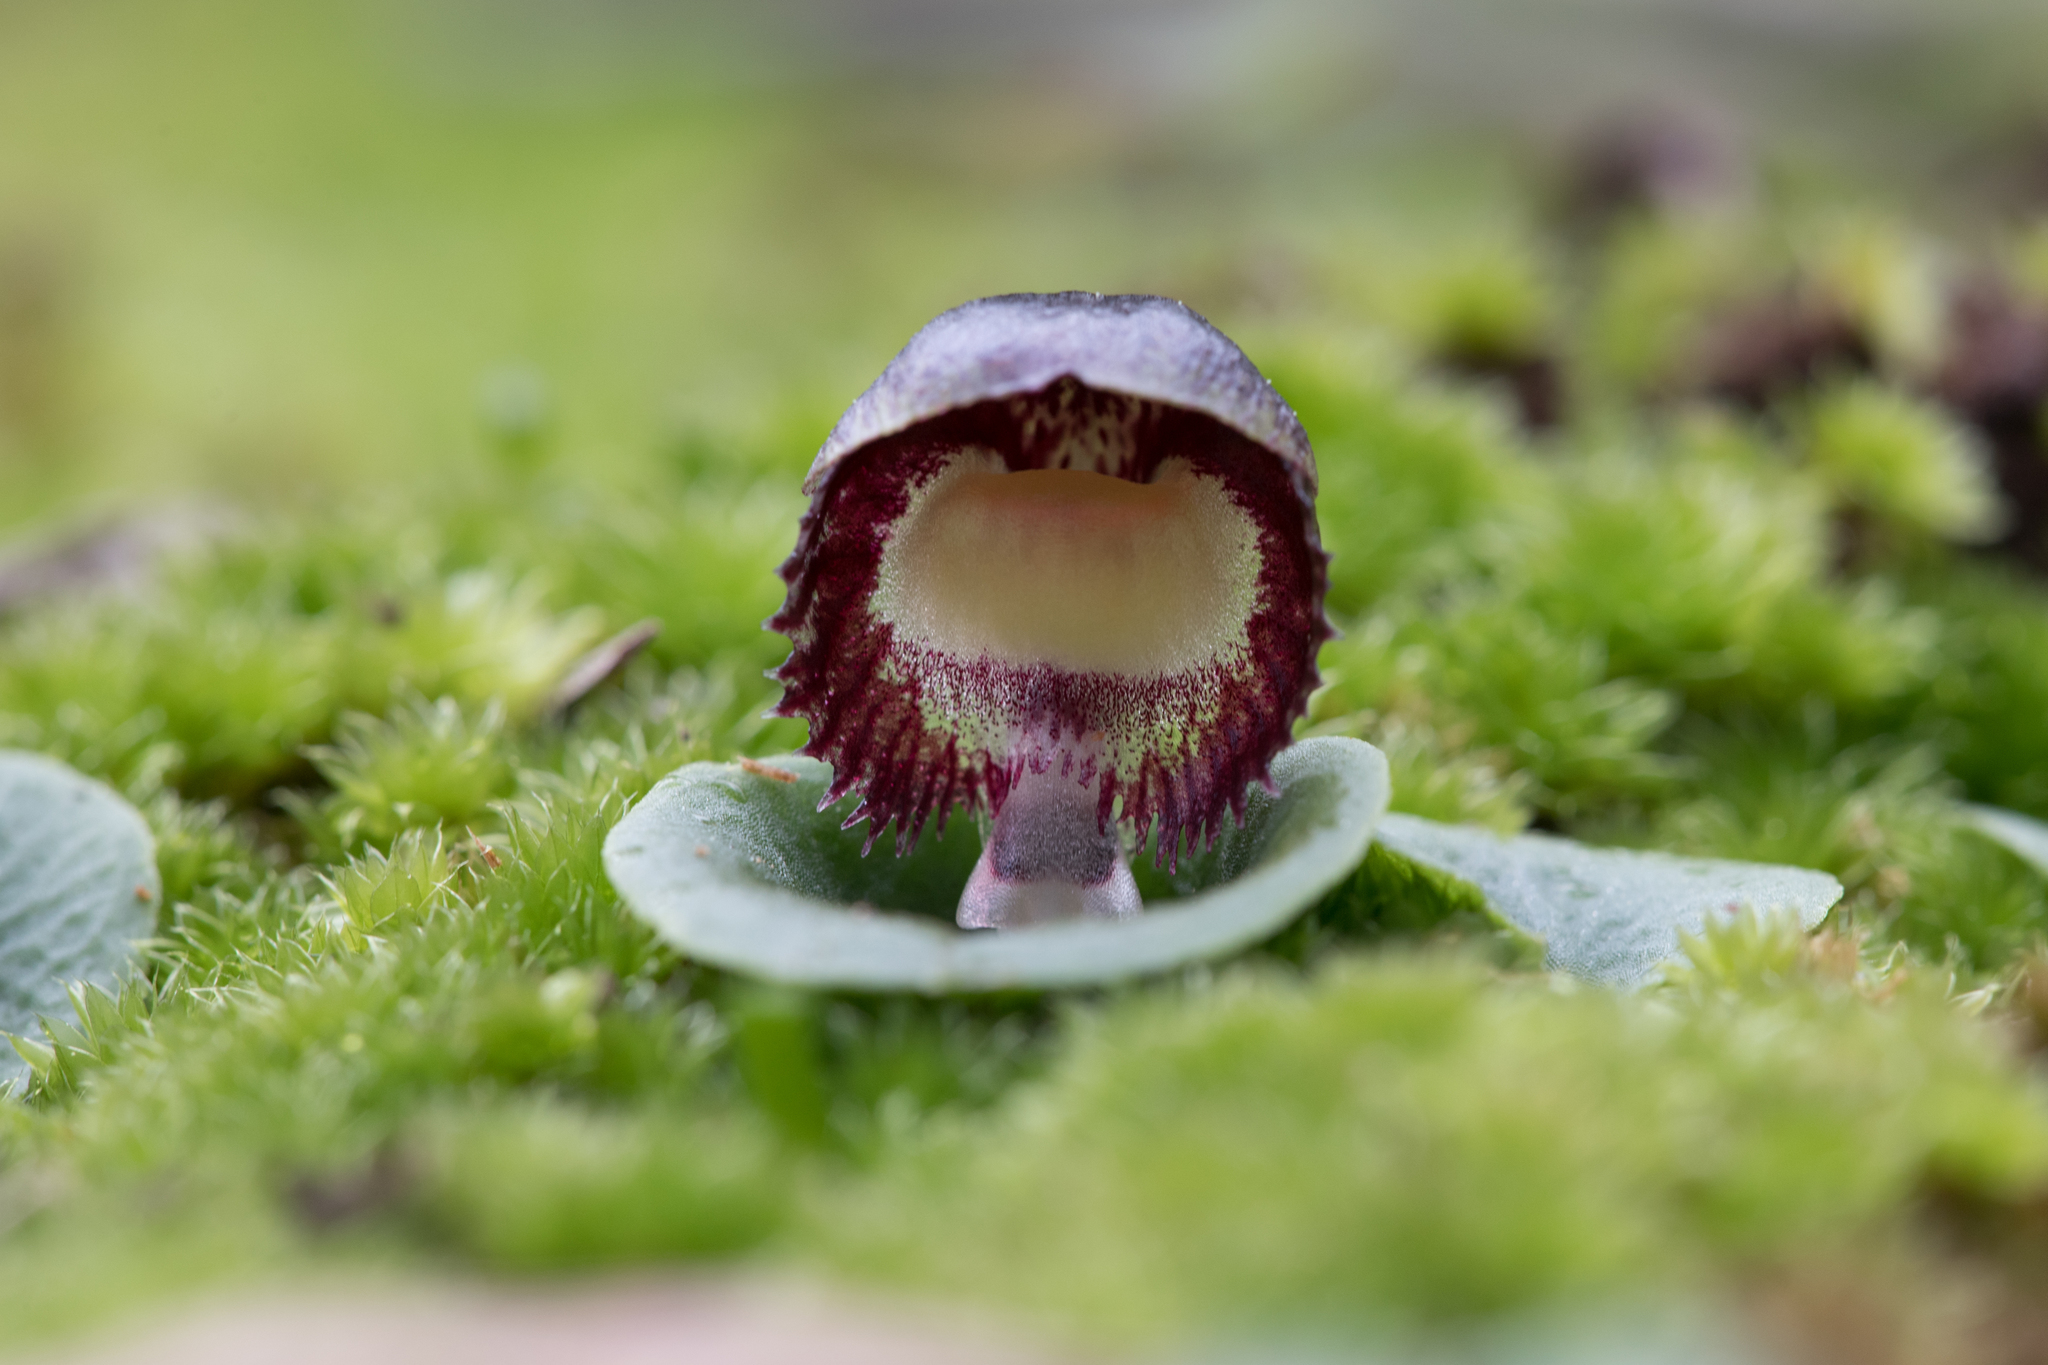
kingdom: Plantae
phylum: Tracheophyta
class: Liliopsida
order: Asparagales
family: Orchidaceae
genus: Corybas
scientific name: Corybas diemenicus
